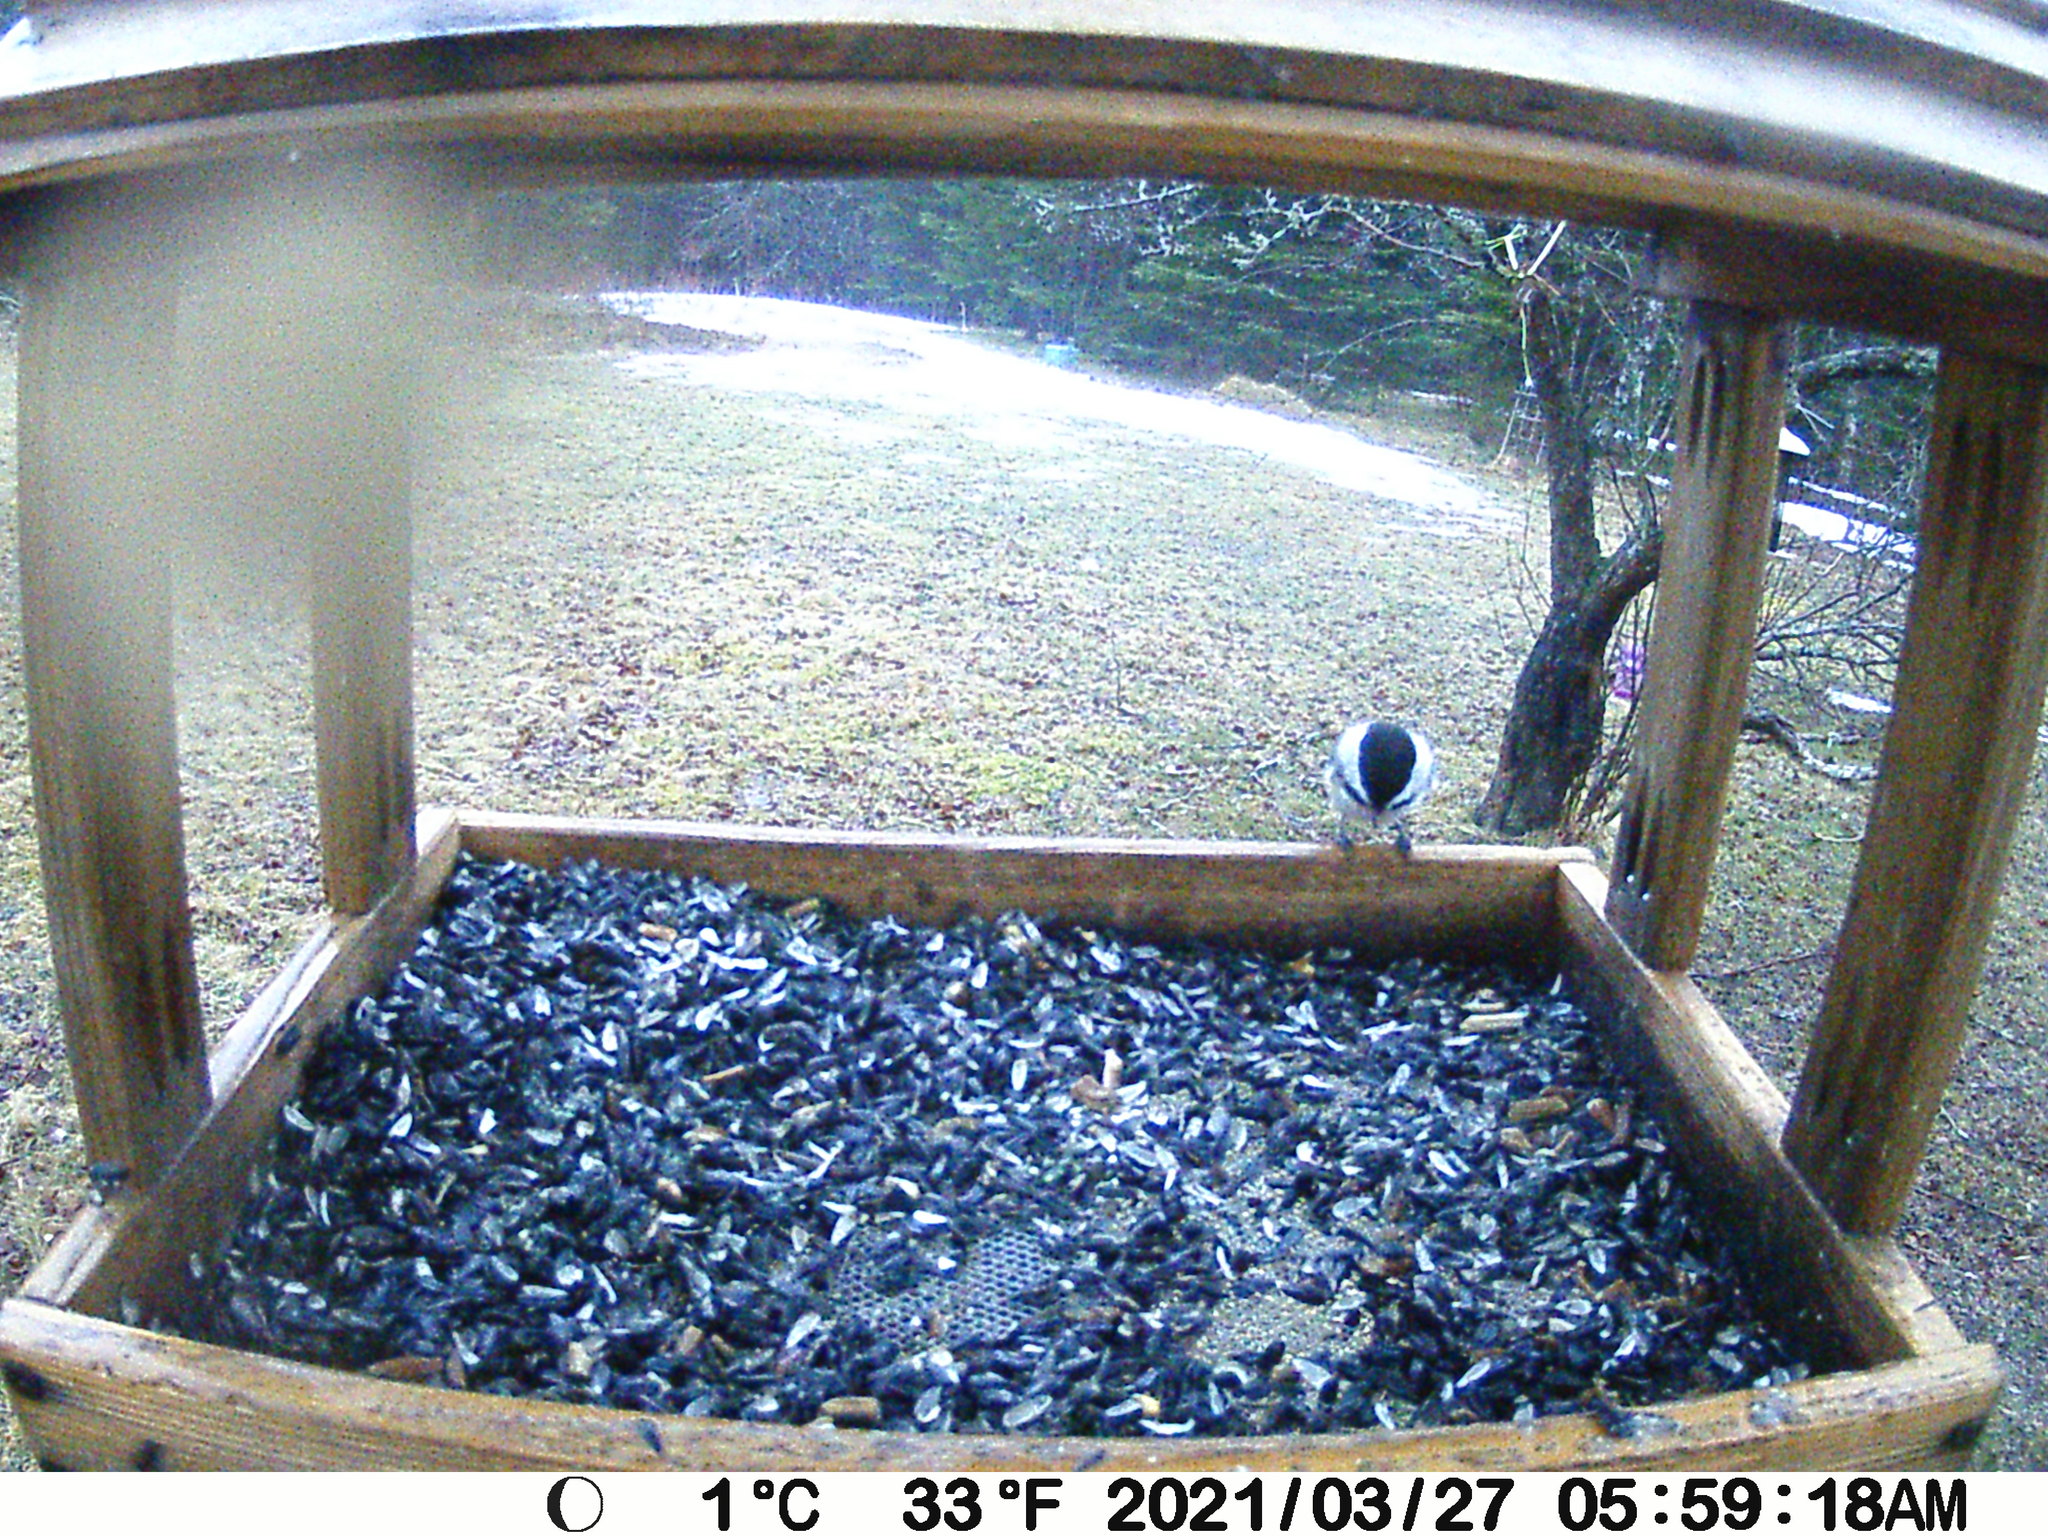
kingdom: Animalia
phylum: Chordata
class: Aves
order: Passeriformes
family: Paridae
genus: Poecile
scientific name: Poecile atricapillus
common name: Black-capped chickadee
